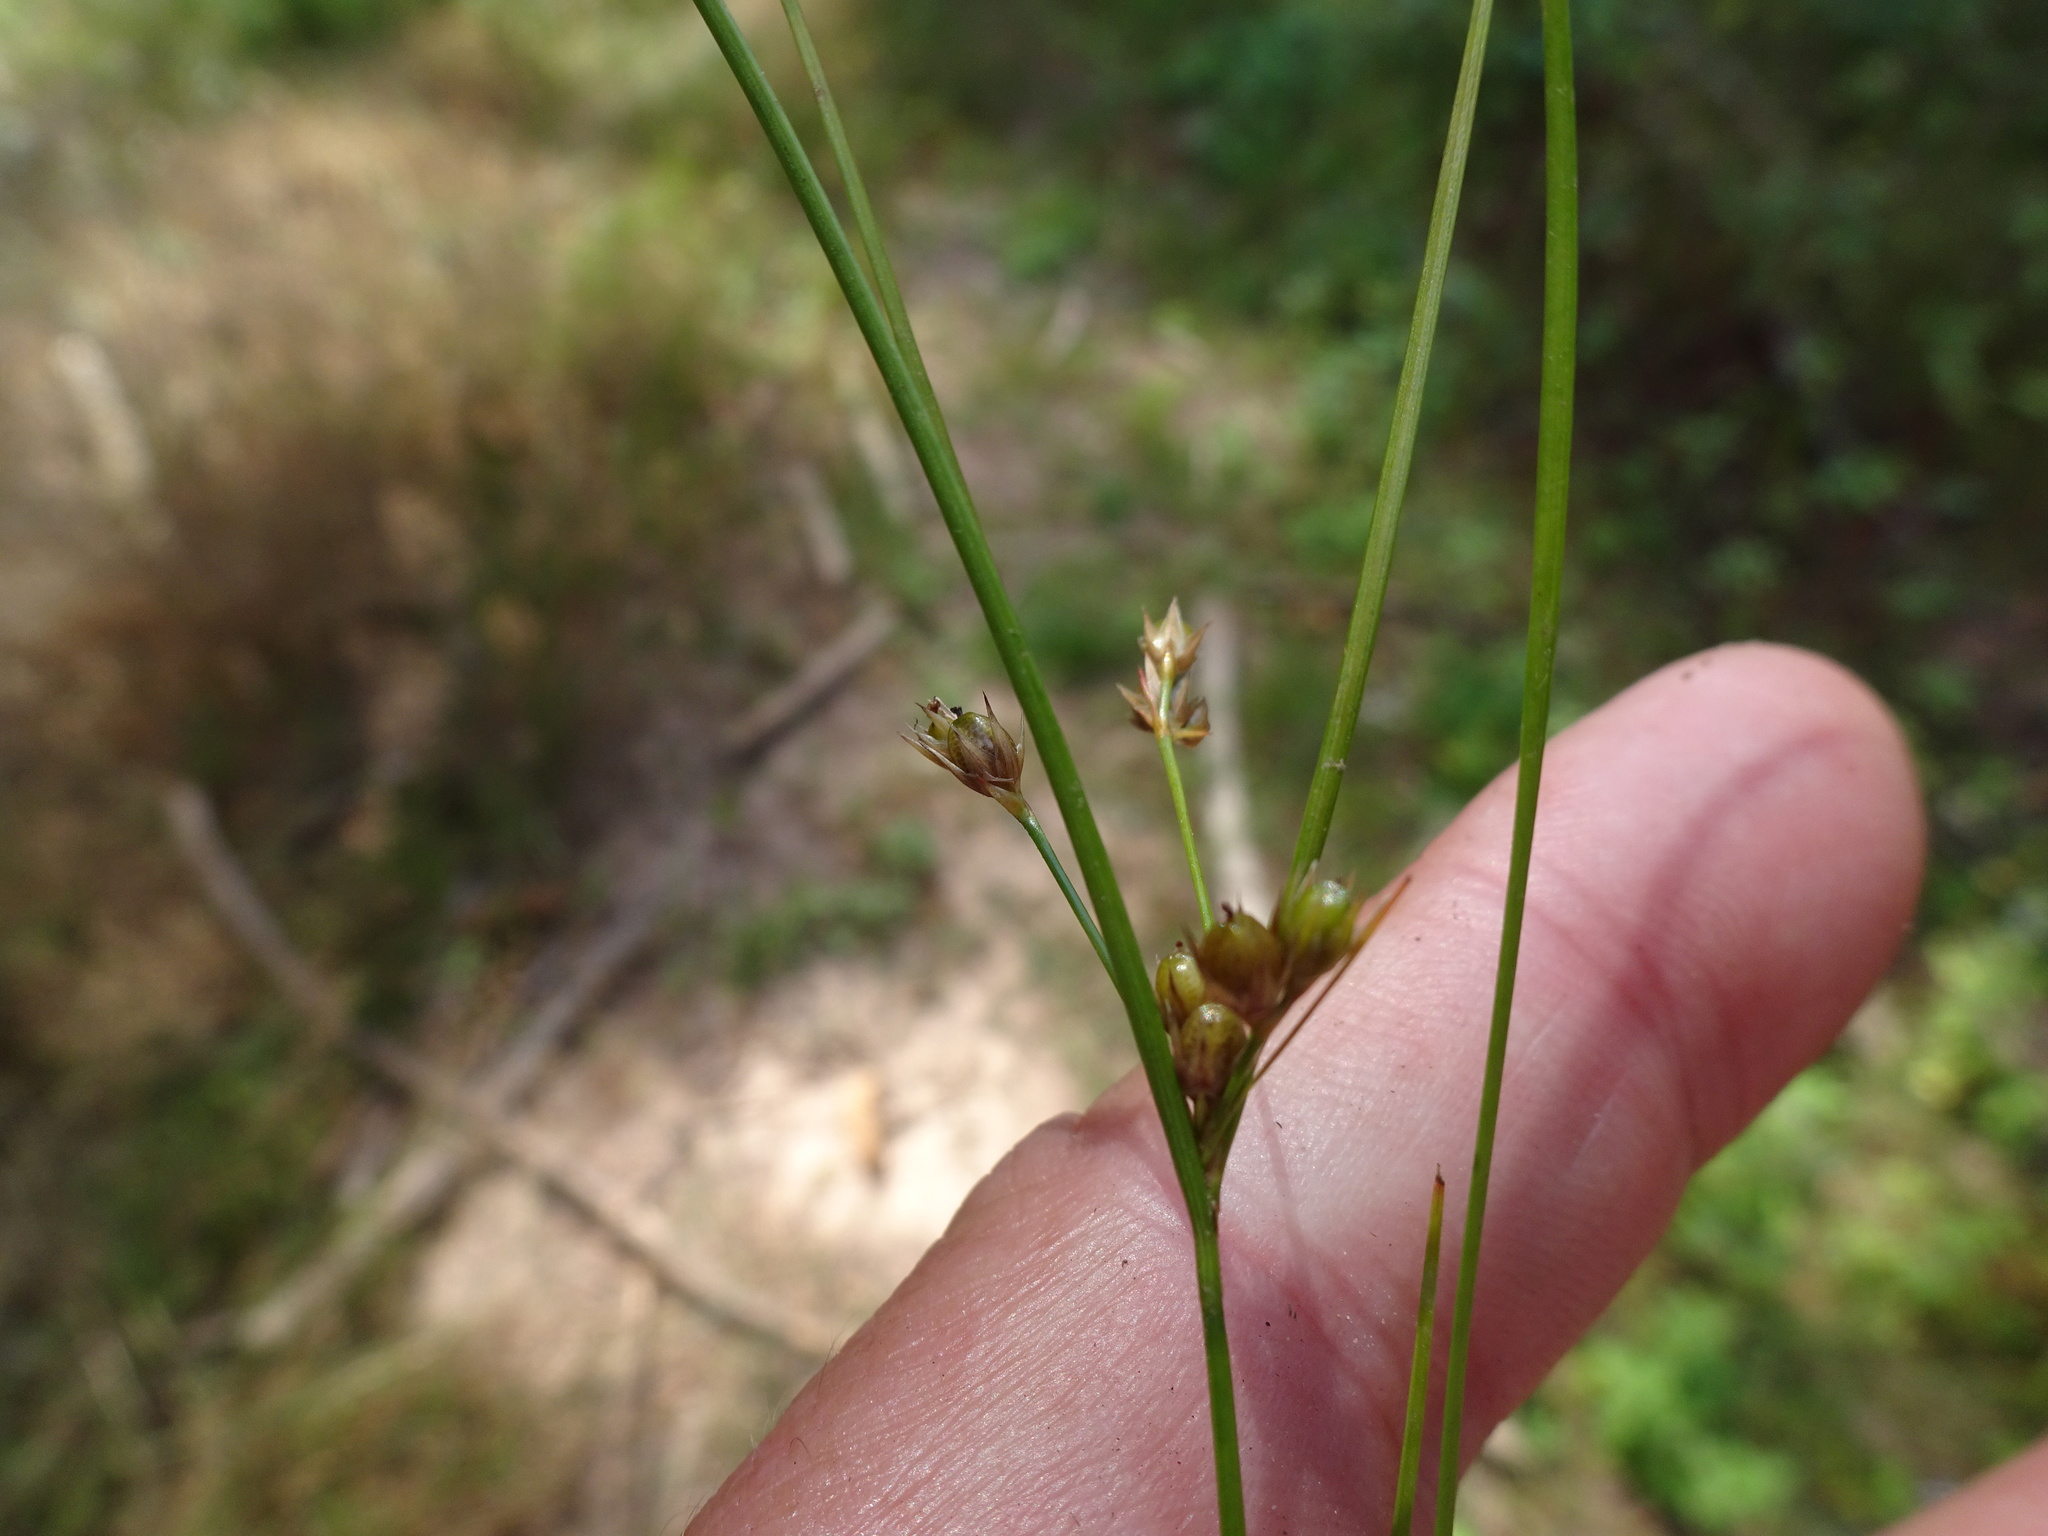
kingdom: Plantae
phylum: Tracheophyta
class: Liliopsida
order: Poales
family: Juncaceae
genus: Juncus
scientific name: Juncus tenuis
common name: Slender rush
